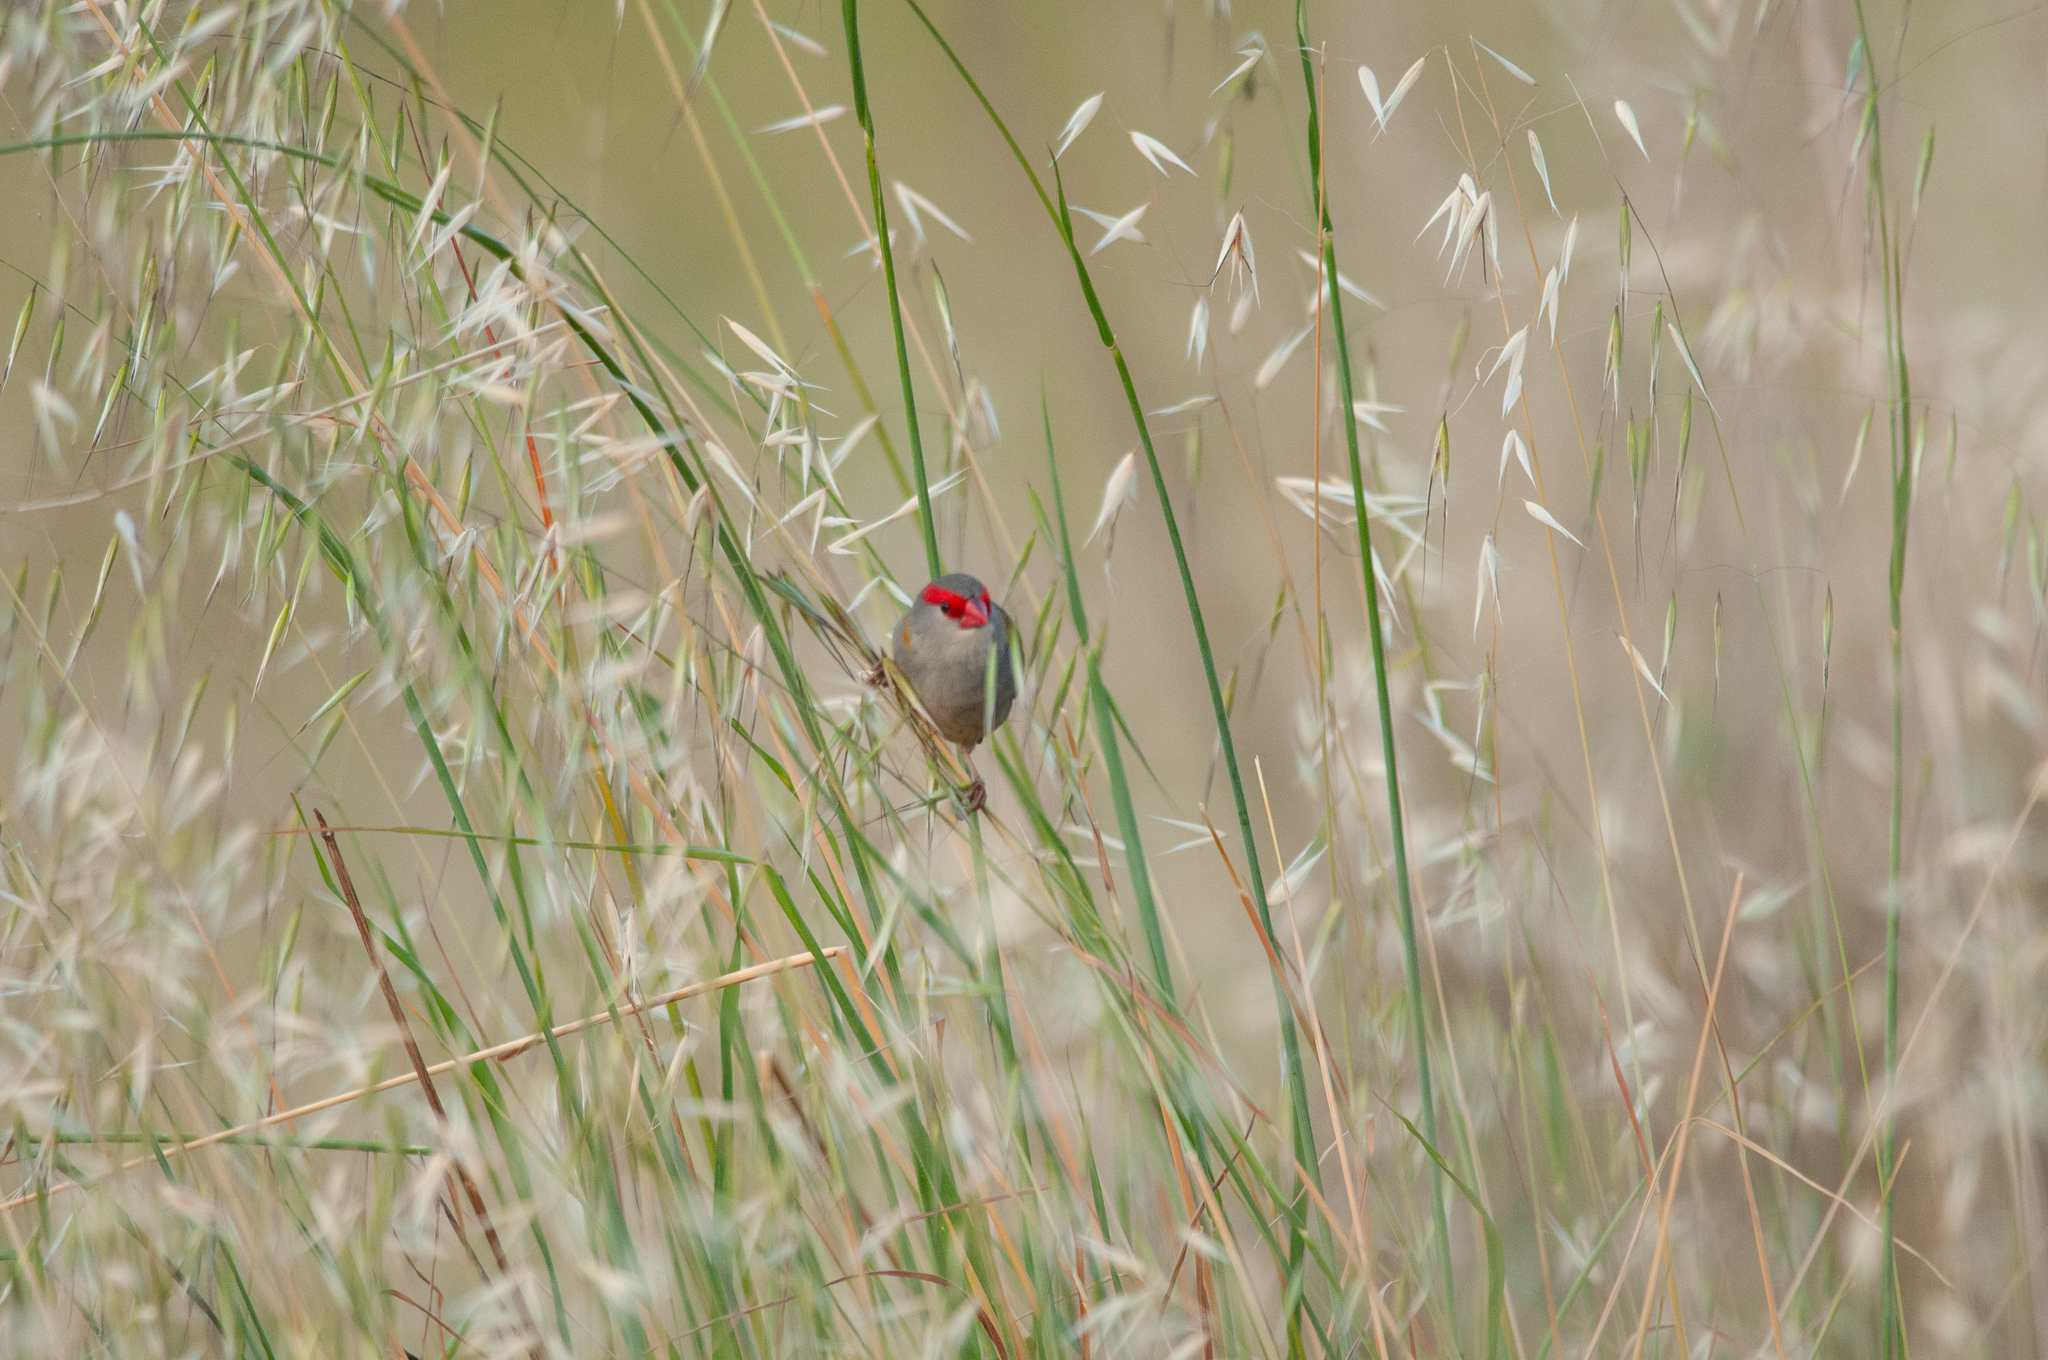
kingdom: Animalia
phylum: Chordata
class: Aves
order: Passeriformes
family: Estrildidae
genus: Neochmia
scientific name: Neochmia temporalis
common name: Red-browed finch
